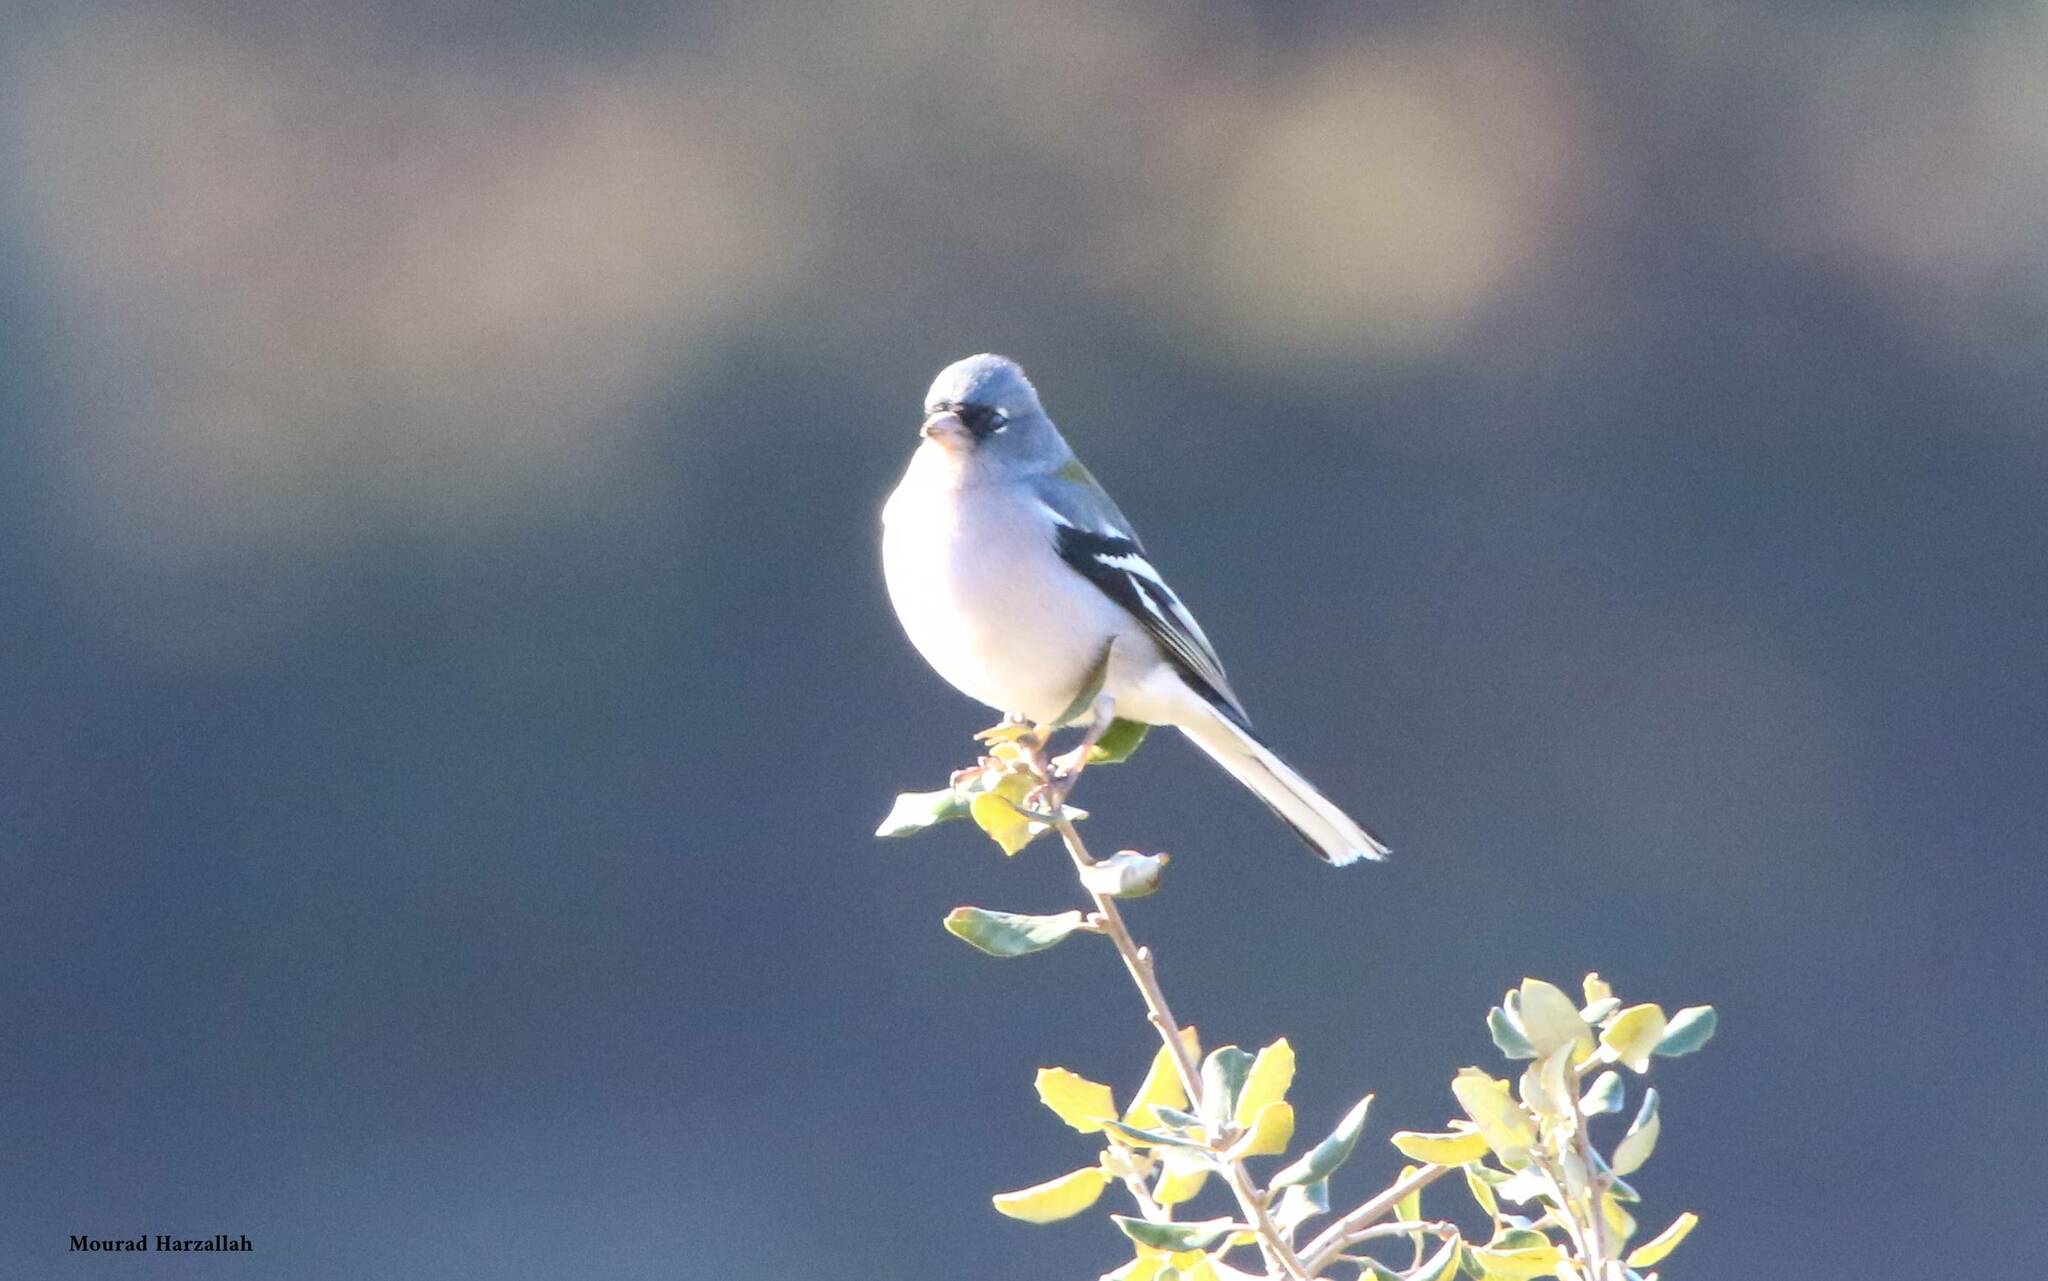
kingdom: Animalia
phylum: Chordata
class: Aves
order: Passeriformes
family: Fringillidae
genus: Fringilla
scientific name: Fringilla spodiogenys
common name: African chaffinch
